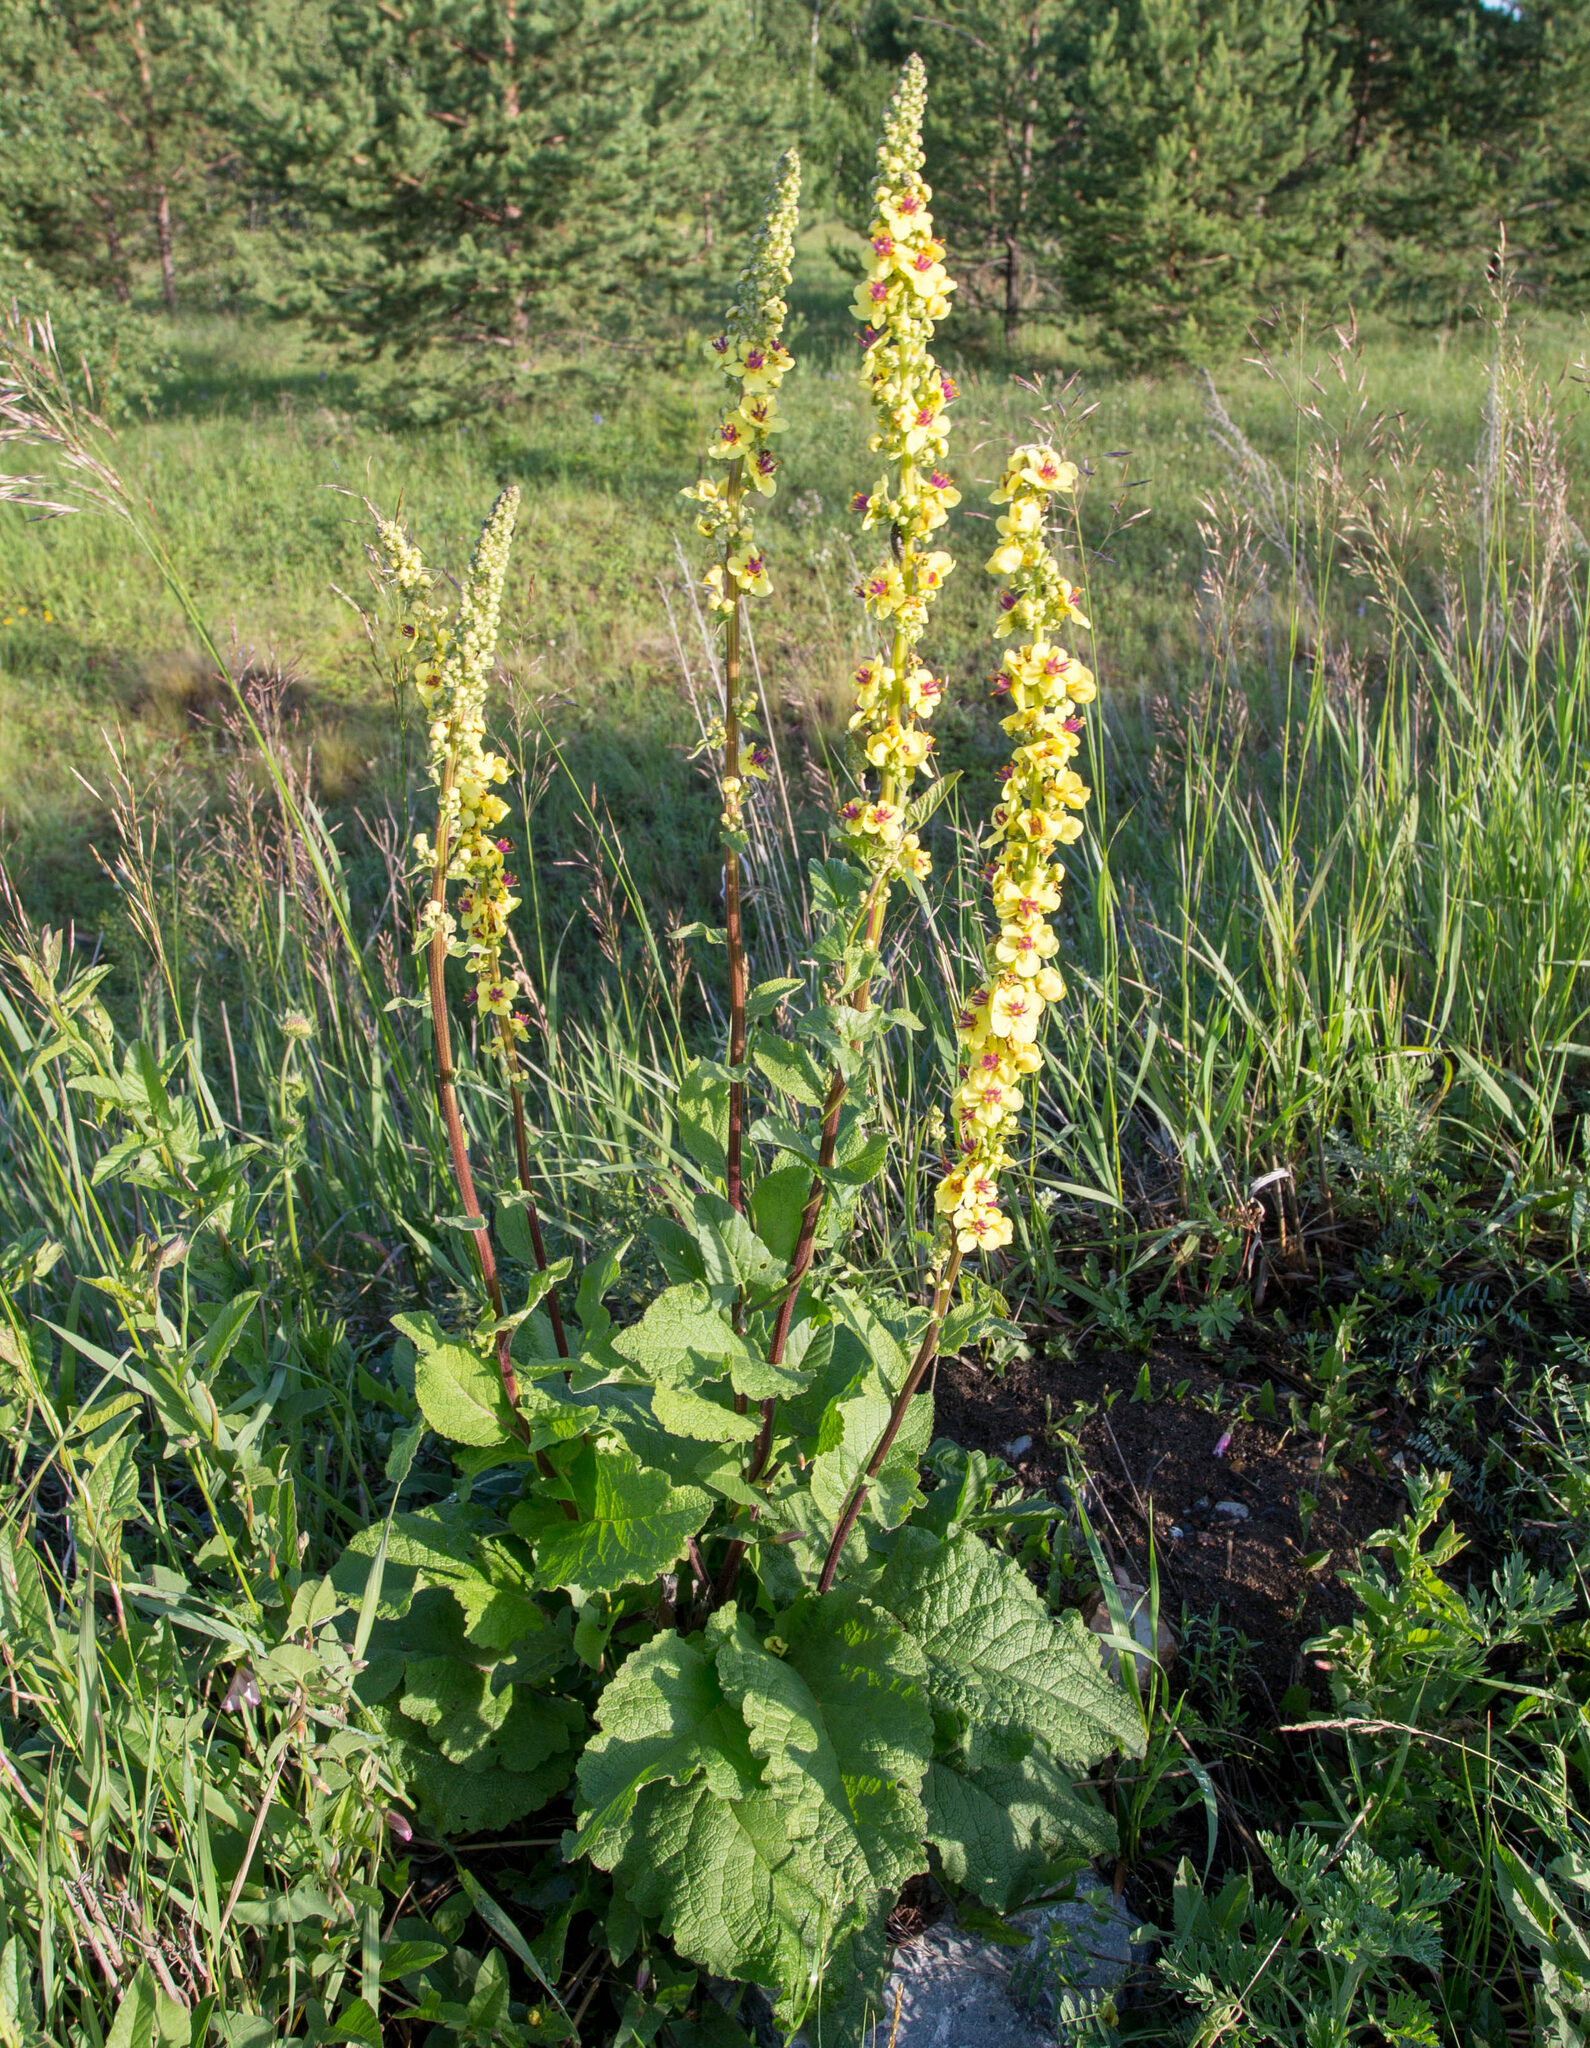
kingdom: Plantae
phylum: Tracheophyta
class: Magnoliopsida
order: Lamiales
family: Scrophulariaceae
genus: Verbascum
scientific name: Verbascum nigrum
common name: Dark mullein
